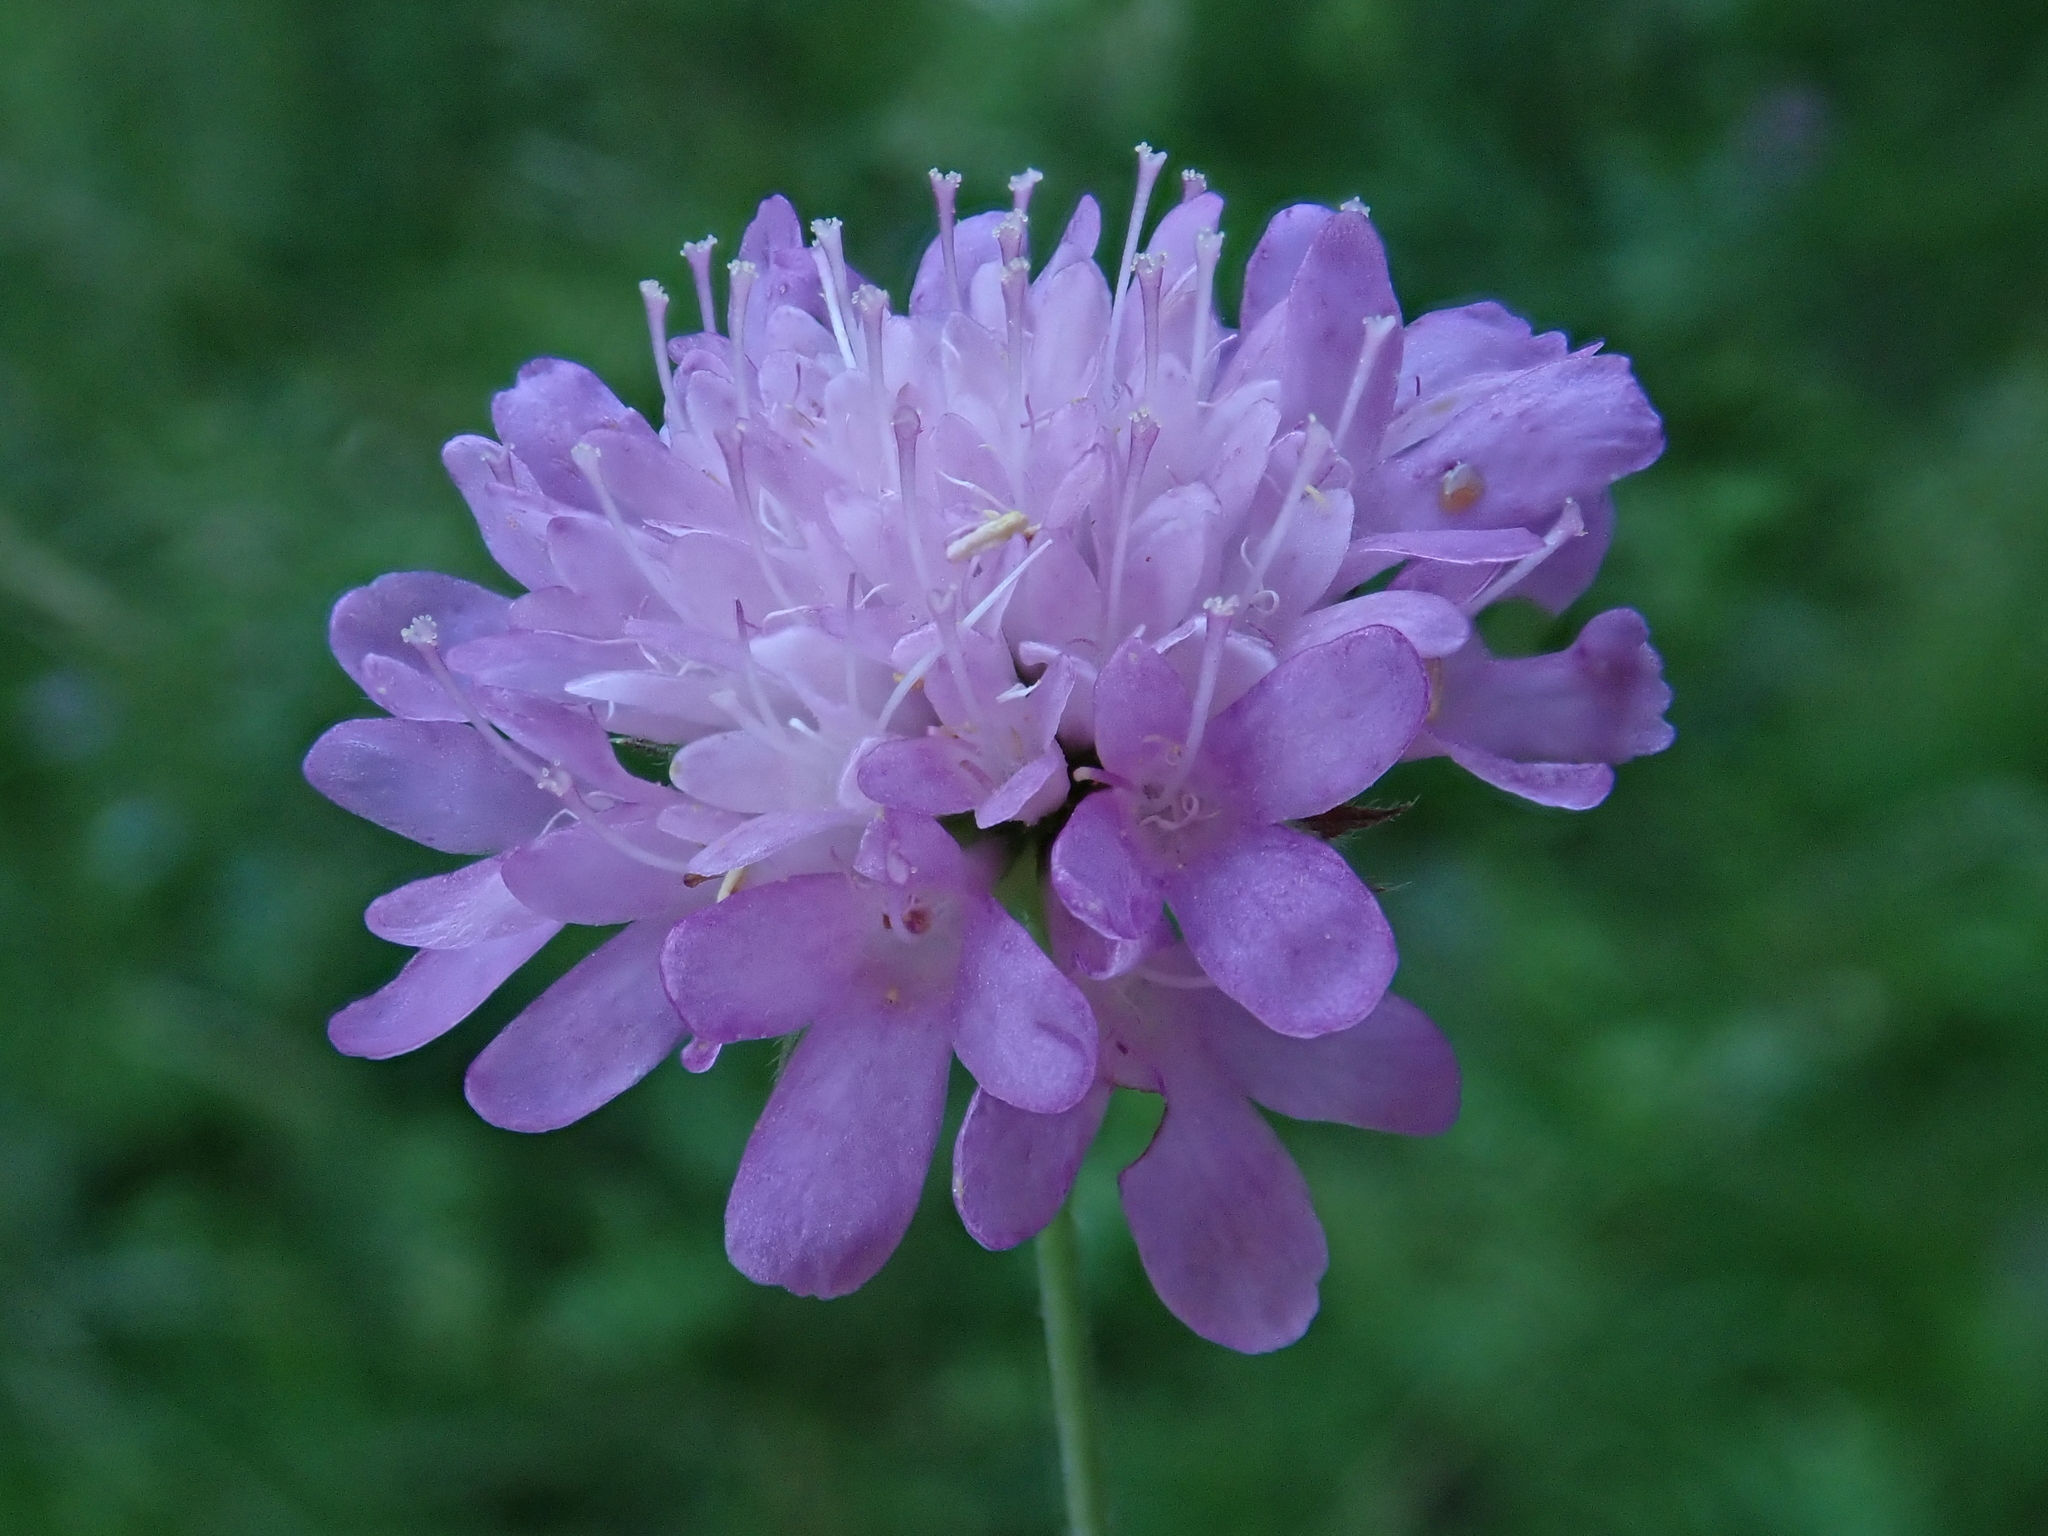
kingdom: Plantae
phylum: Tracheophyta
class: Magnoliopsida
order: Dipsacales
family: Caprifoliaceae
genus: Knautia
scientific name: Knautia drymeia
